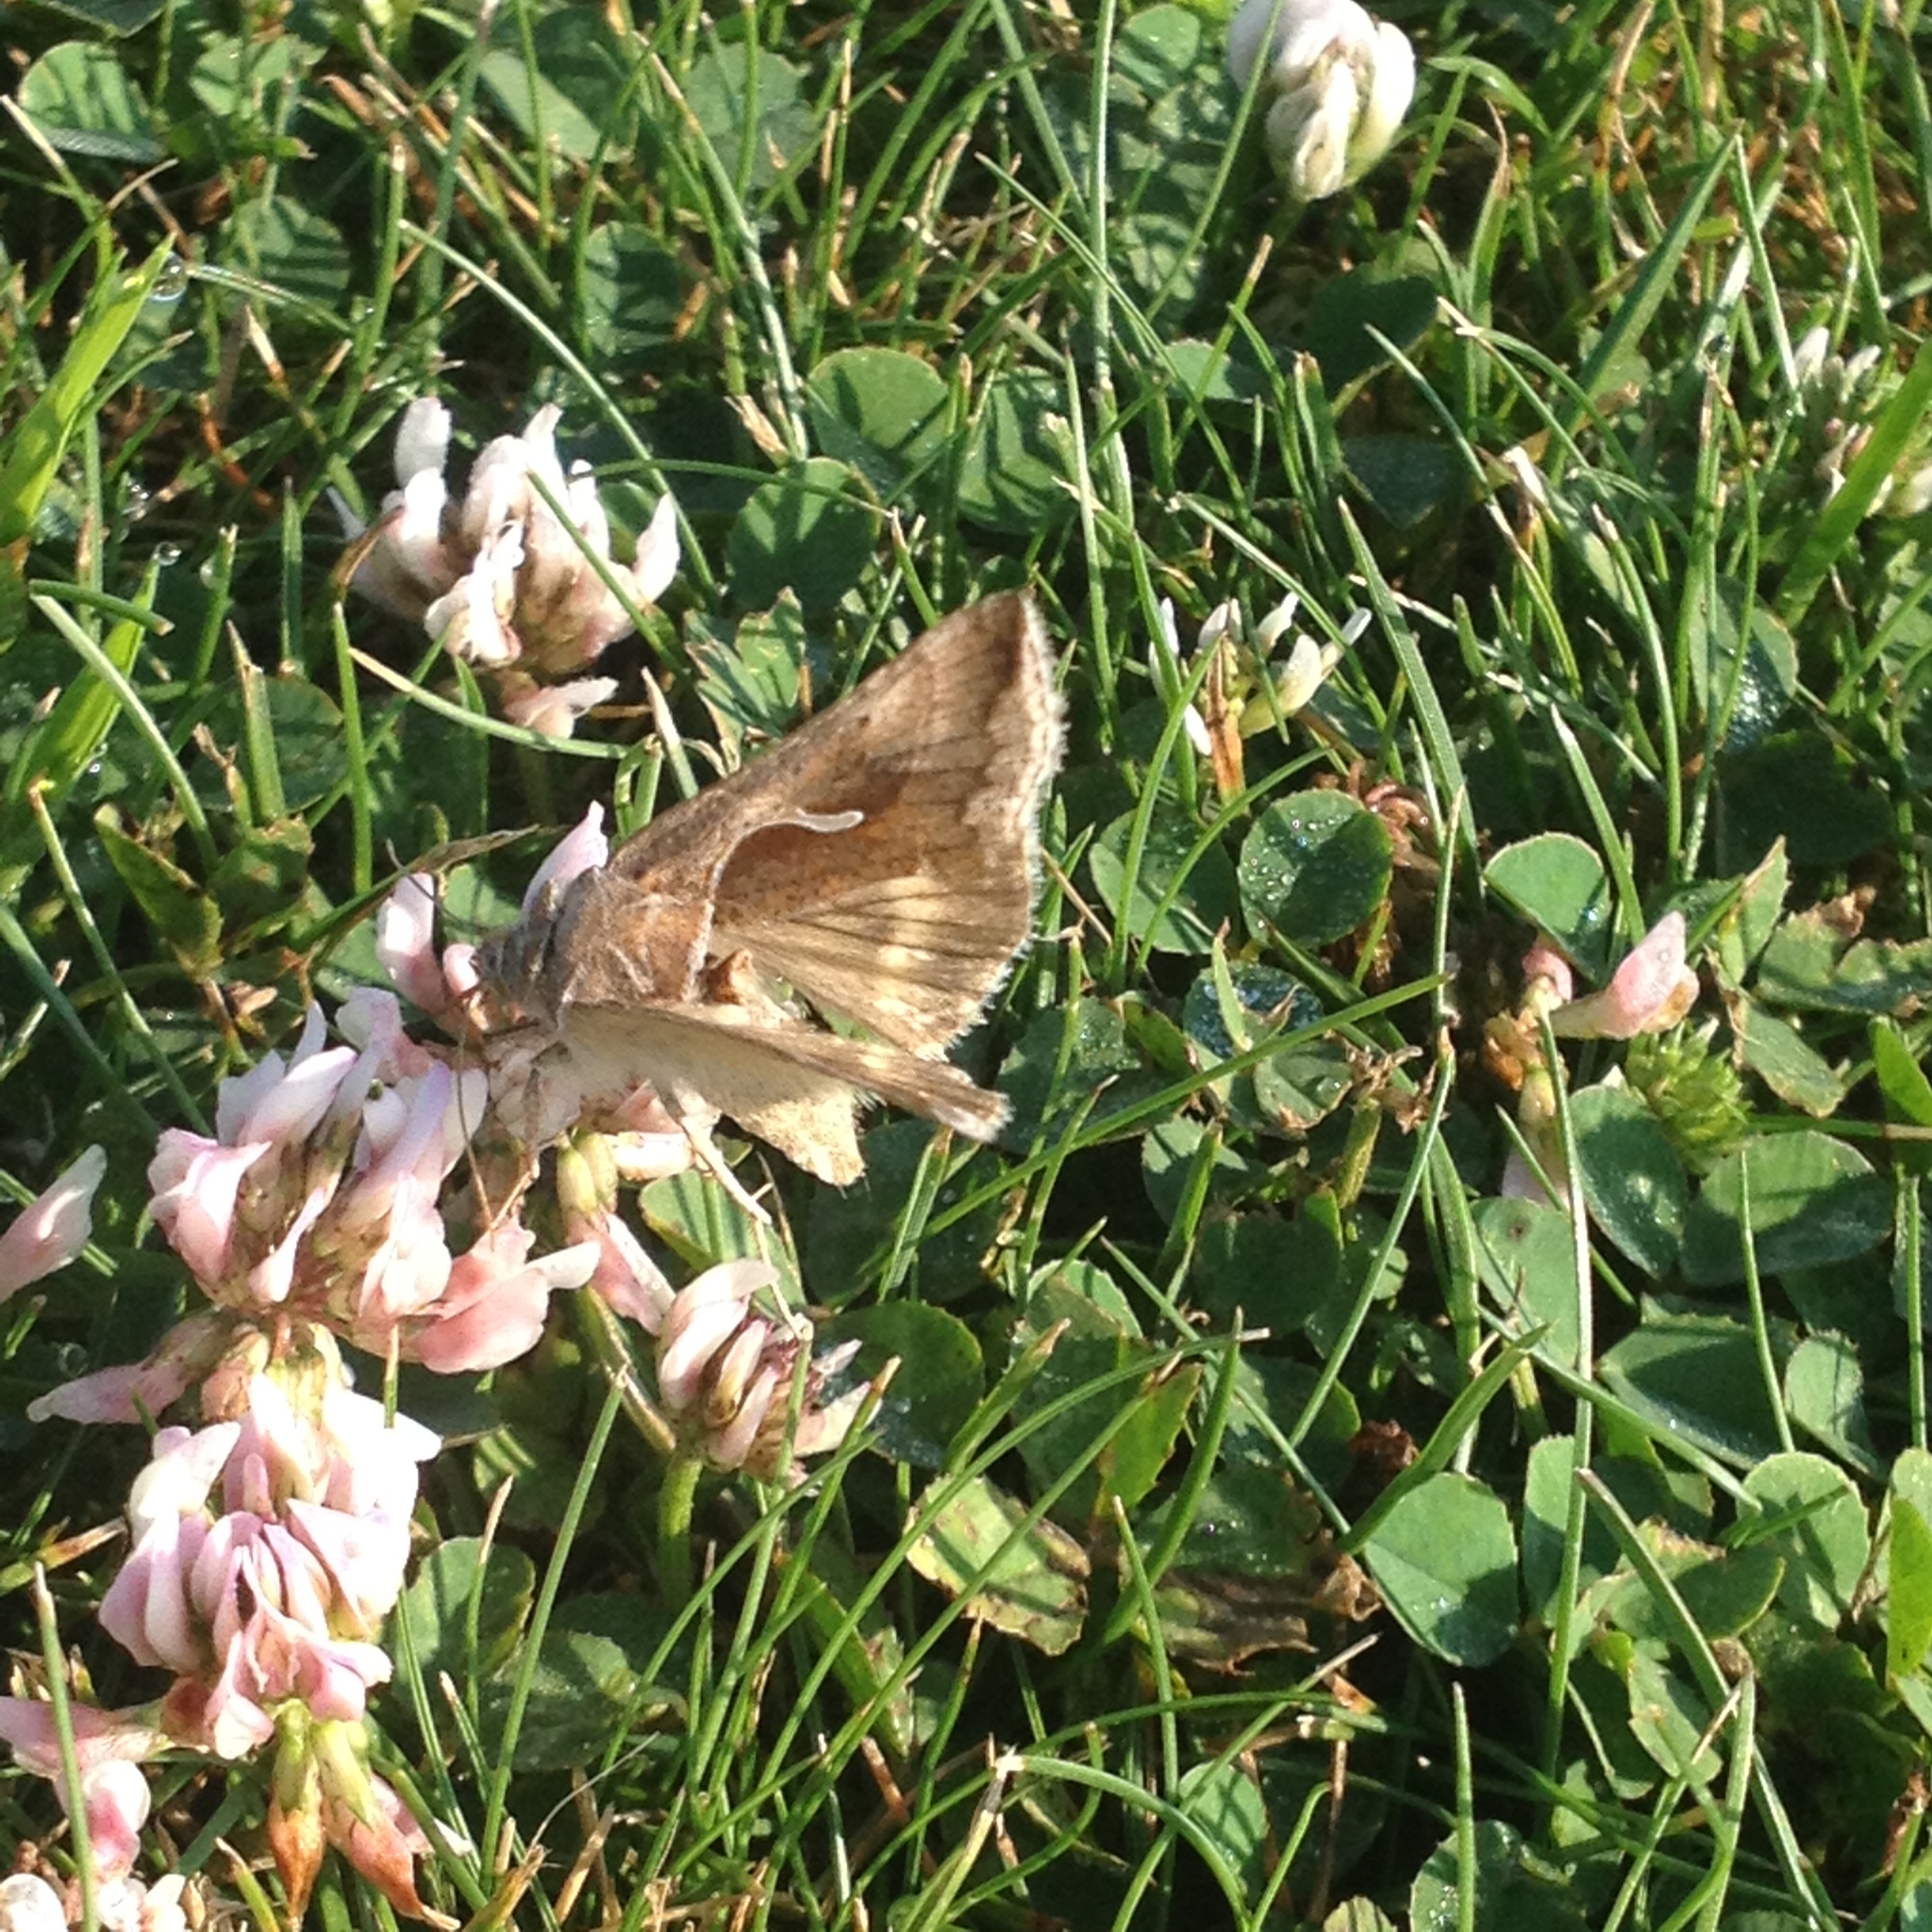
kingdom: Animalia
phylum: Arthropoda
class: Insecta
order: Lepidoptera
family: Noctuidae
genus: Anagrapha
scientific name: Anagrapha falcifera
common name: Celery looper
